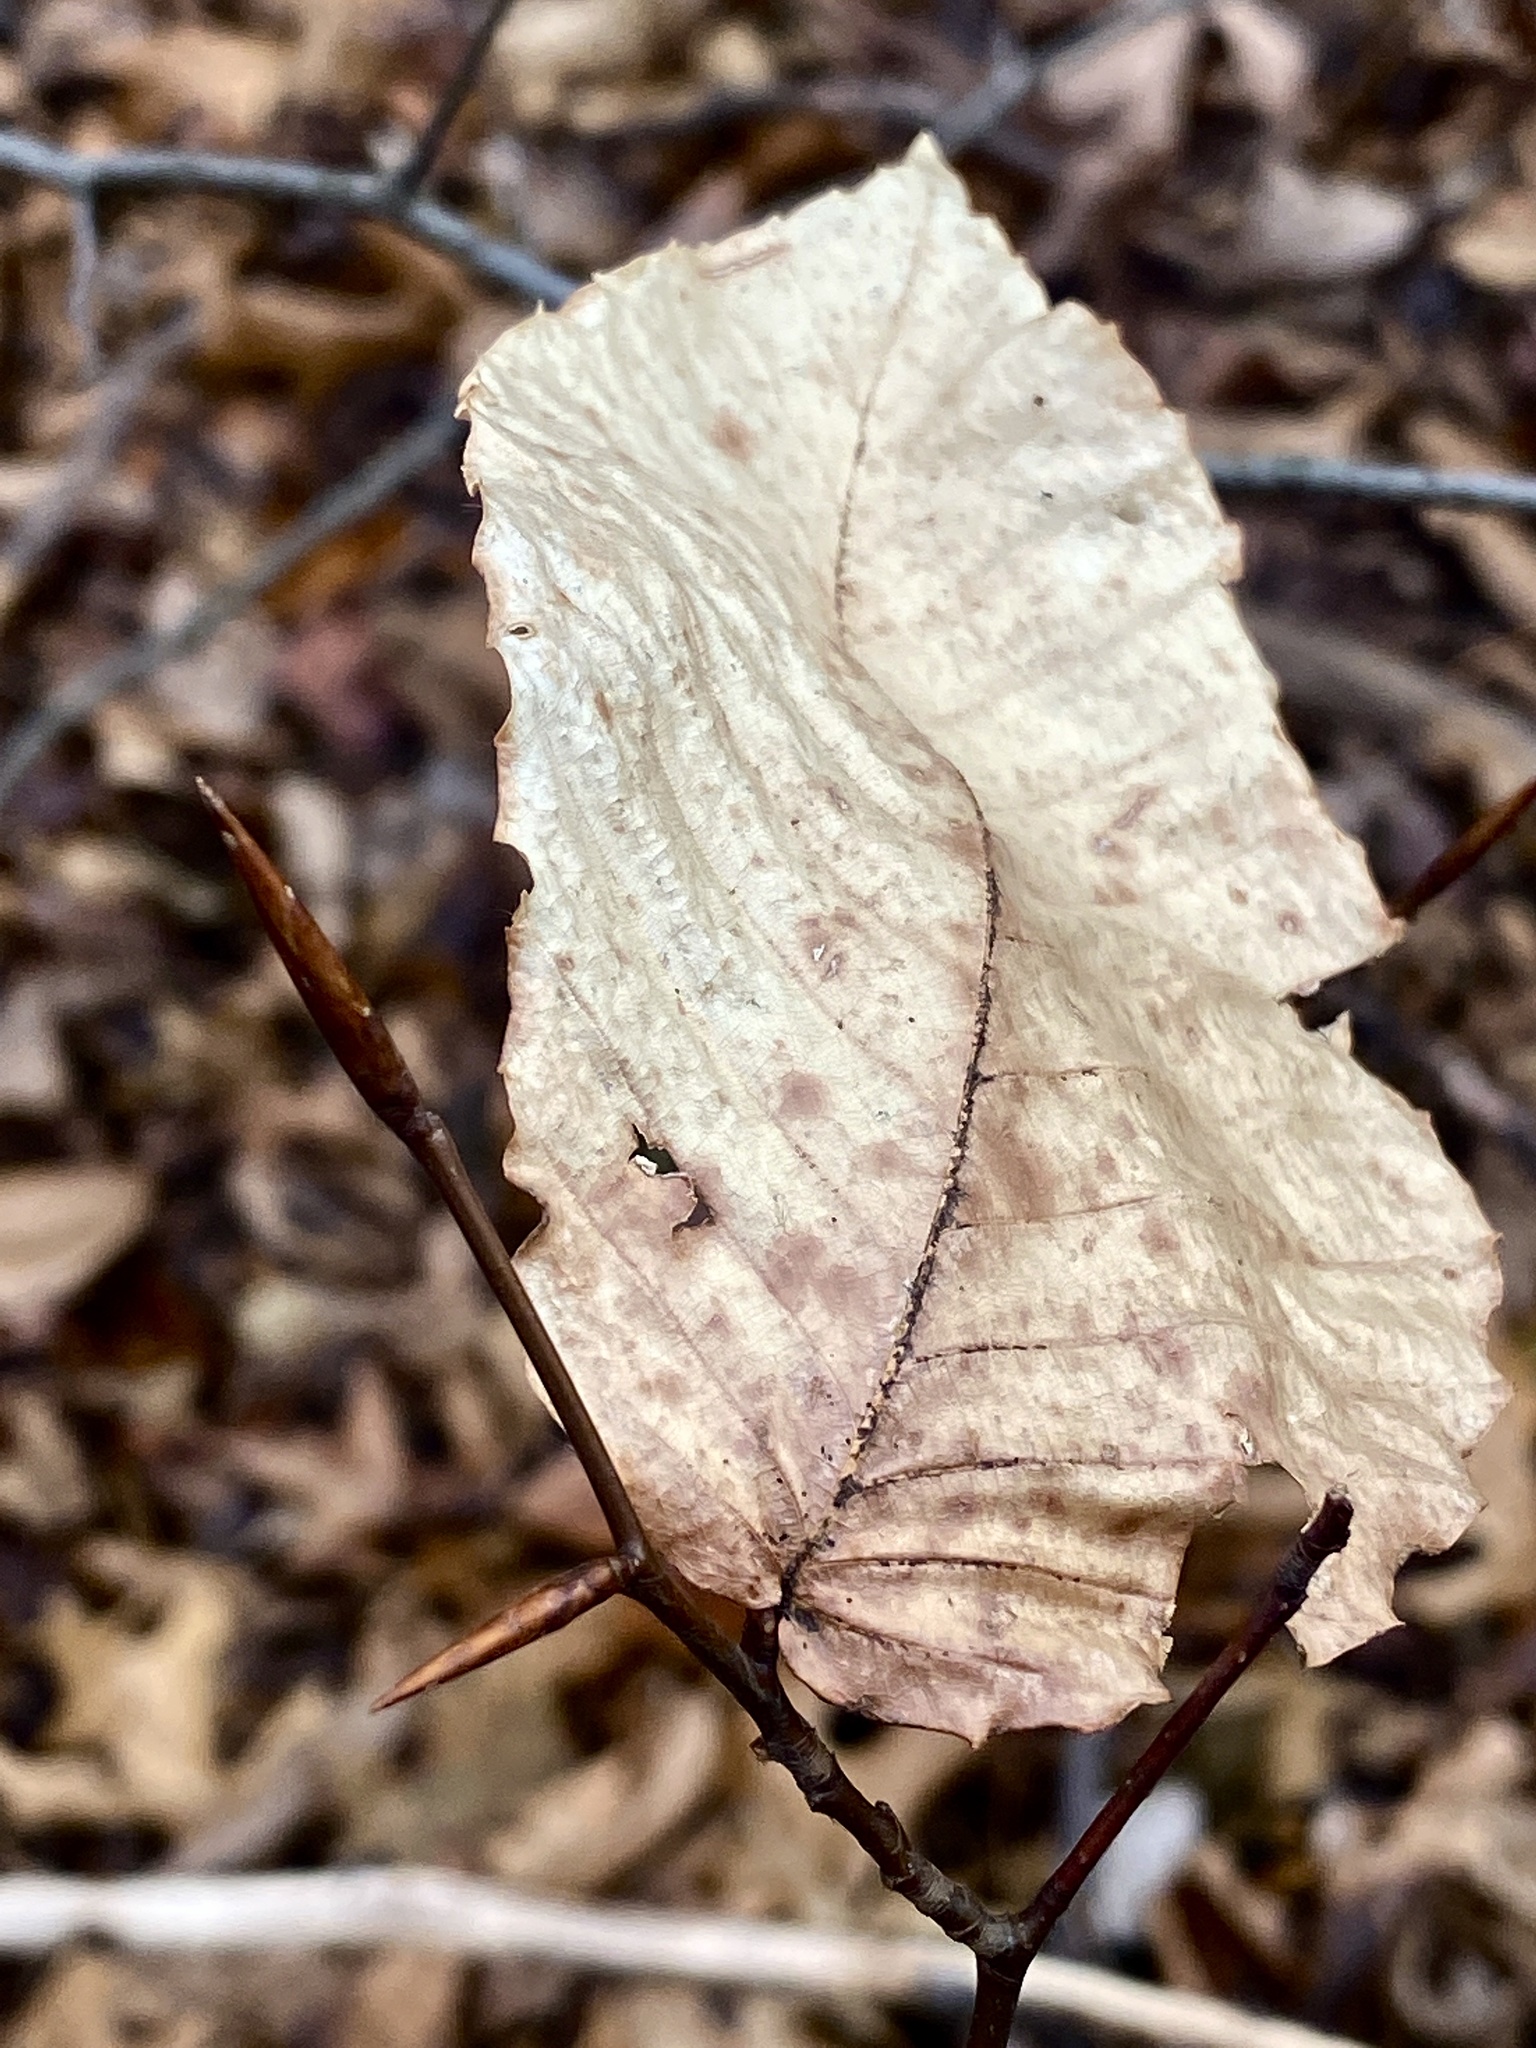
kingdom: Plantae
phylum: Tracheophyta
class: Magnoliopsida
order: Fagales
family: Fagaceae
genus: Fagus
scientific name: Fagus grandifolia
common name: American beech
